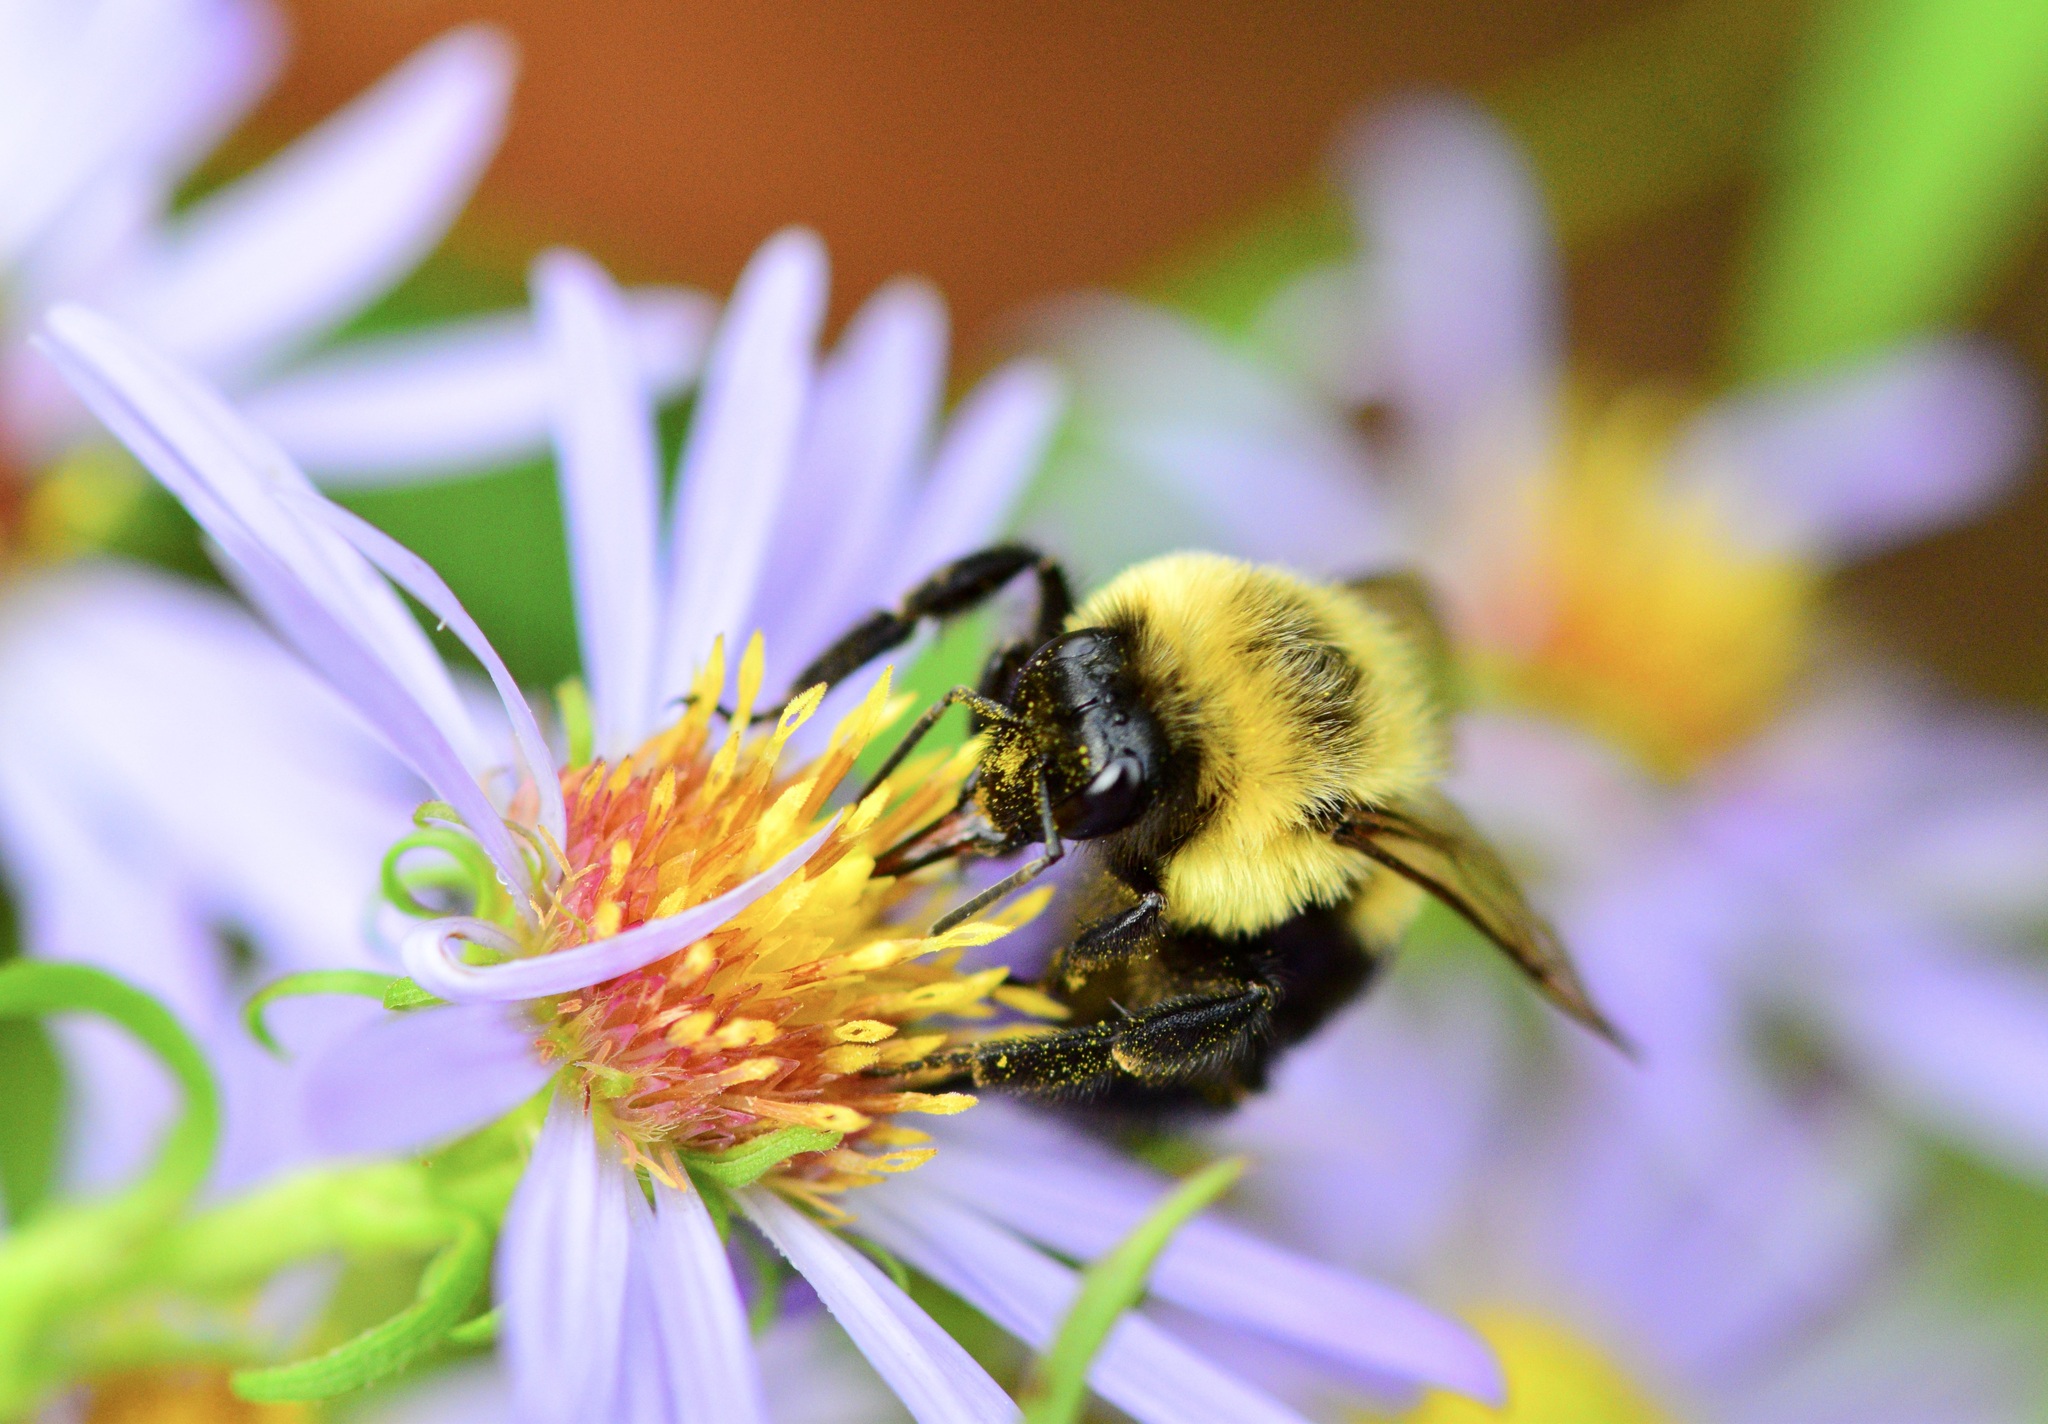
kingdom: Animalia
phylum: Arthropoda
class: Insecta
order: Hymenoptera
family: Apidae
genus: Bombus
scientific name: Bombus impatiens
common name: Common eastern bumble bee
